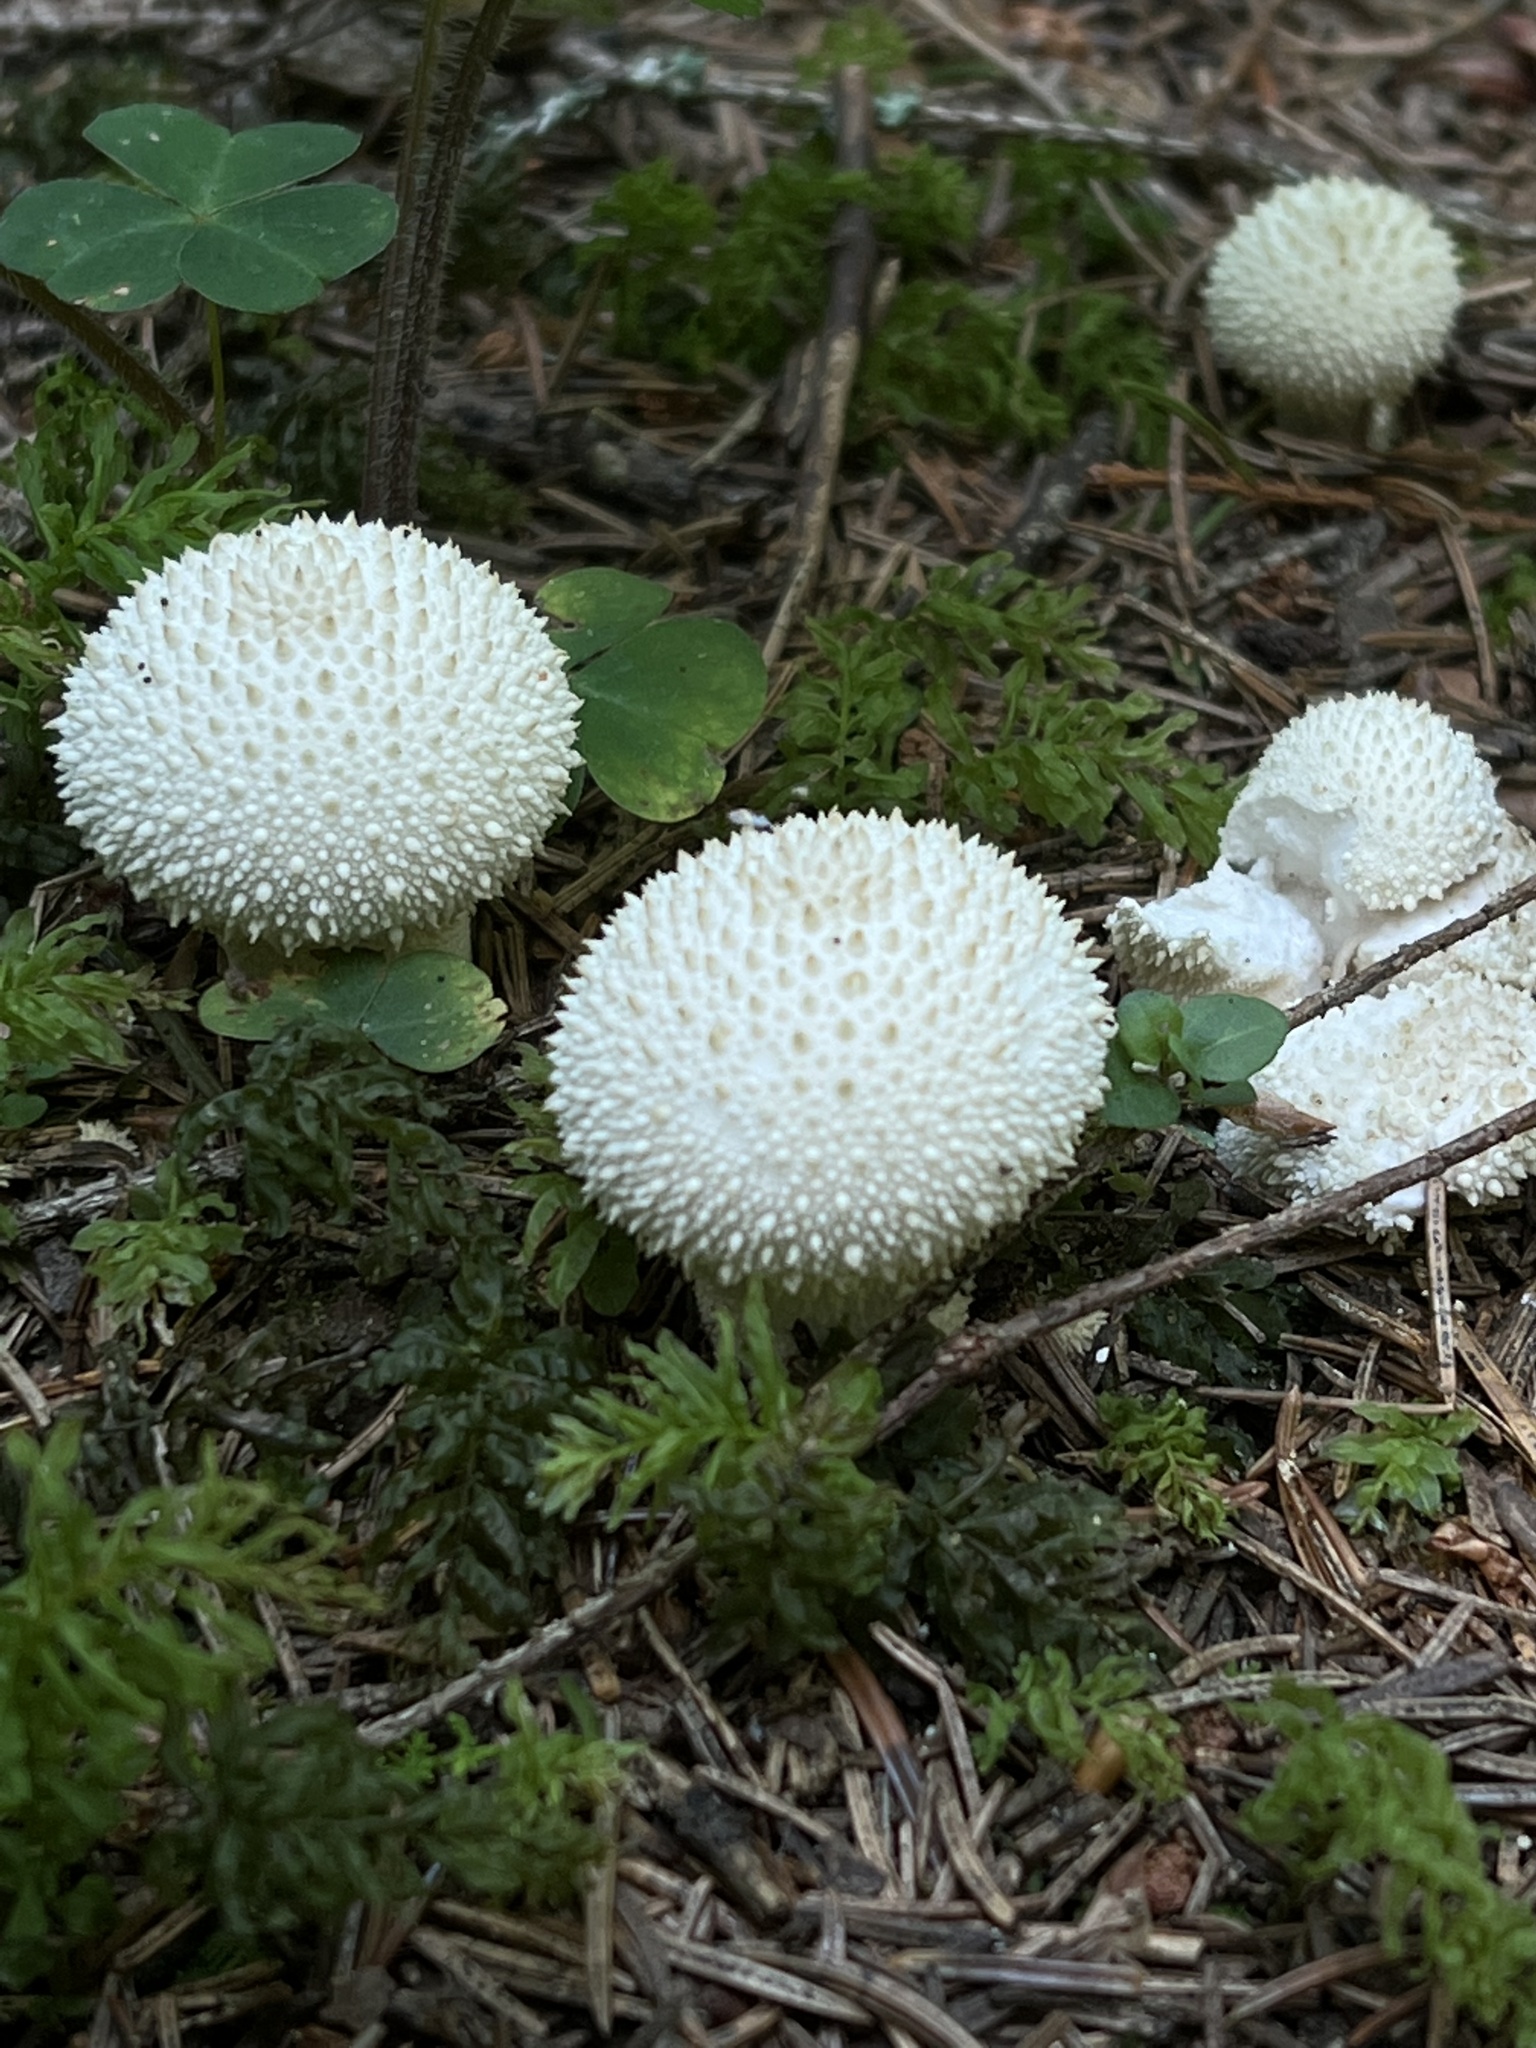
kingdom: Fungi
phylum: Basidiomycota
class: Agaricomycetes
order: Agaricales
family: Lycoperdaceae
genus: Lycoperdon
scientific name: Lycoperdon perlatum
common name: Common puffball
